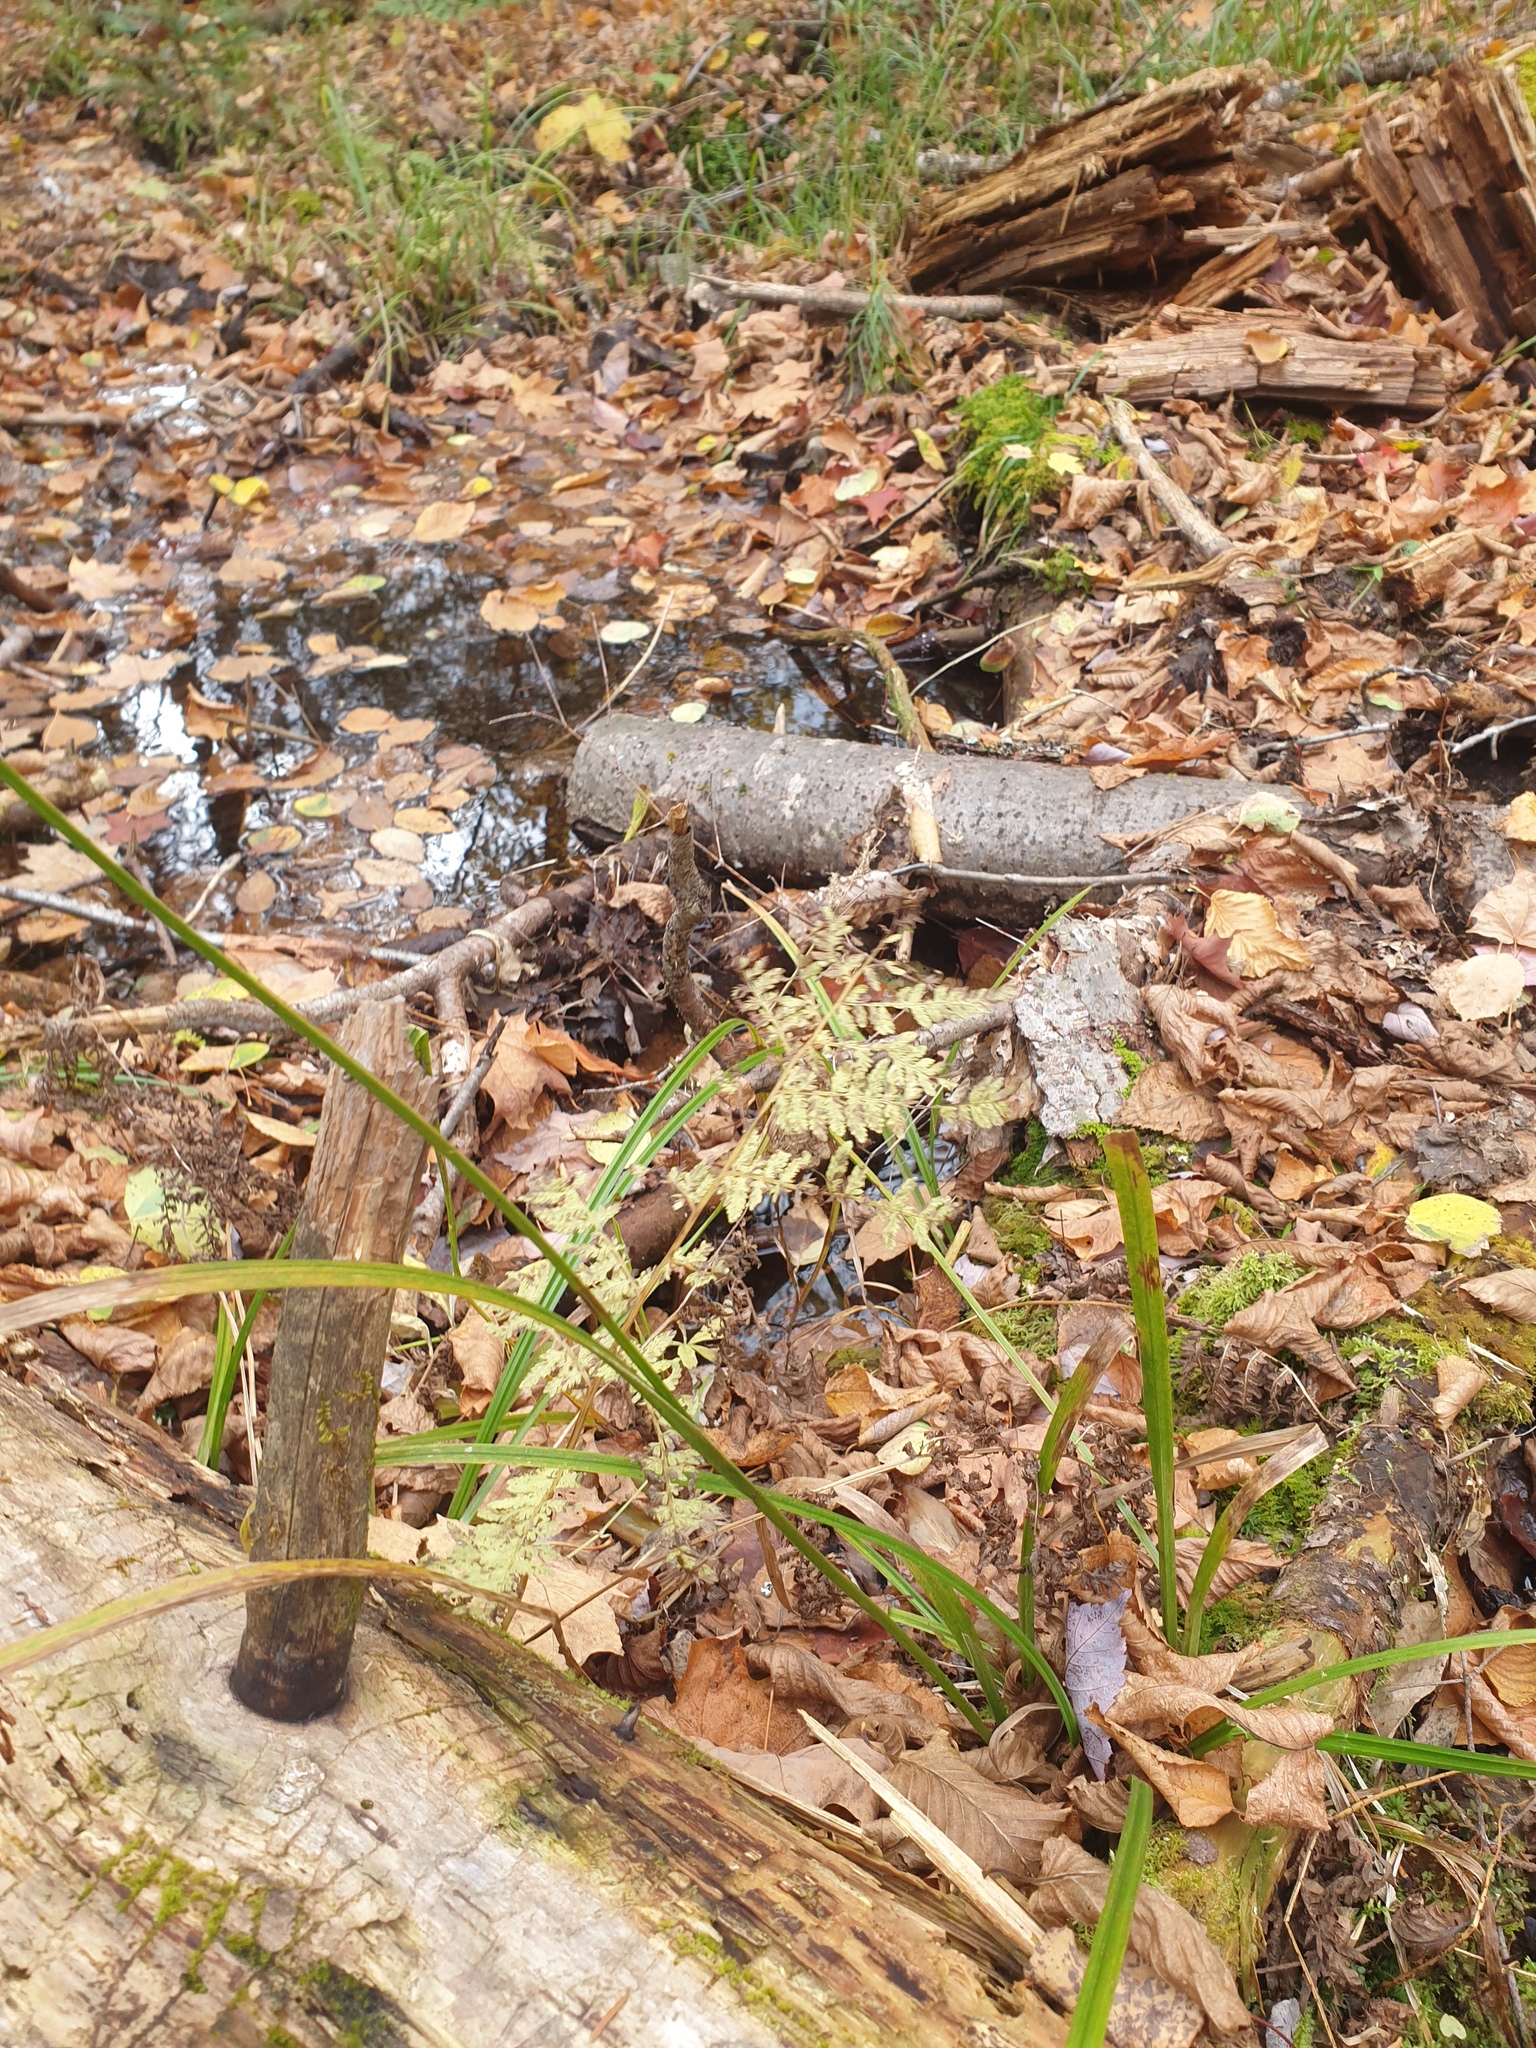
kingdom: Plantae
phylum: Tracheophyta
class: Liliopsida
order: Poales
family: Cyperaceae
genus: Carex
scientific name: Carex scabrata
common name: Eastern rough sedge
